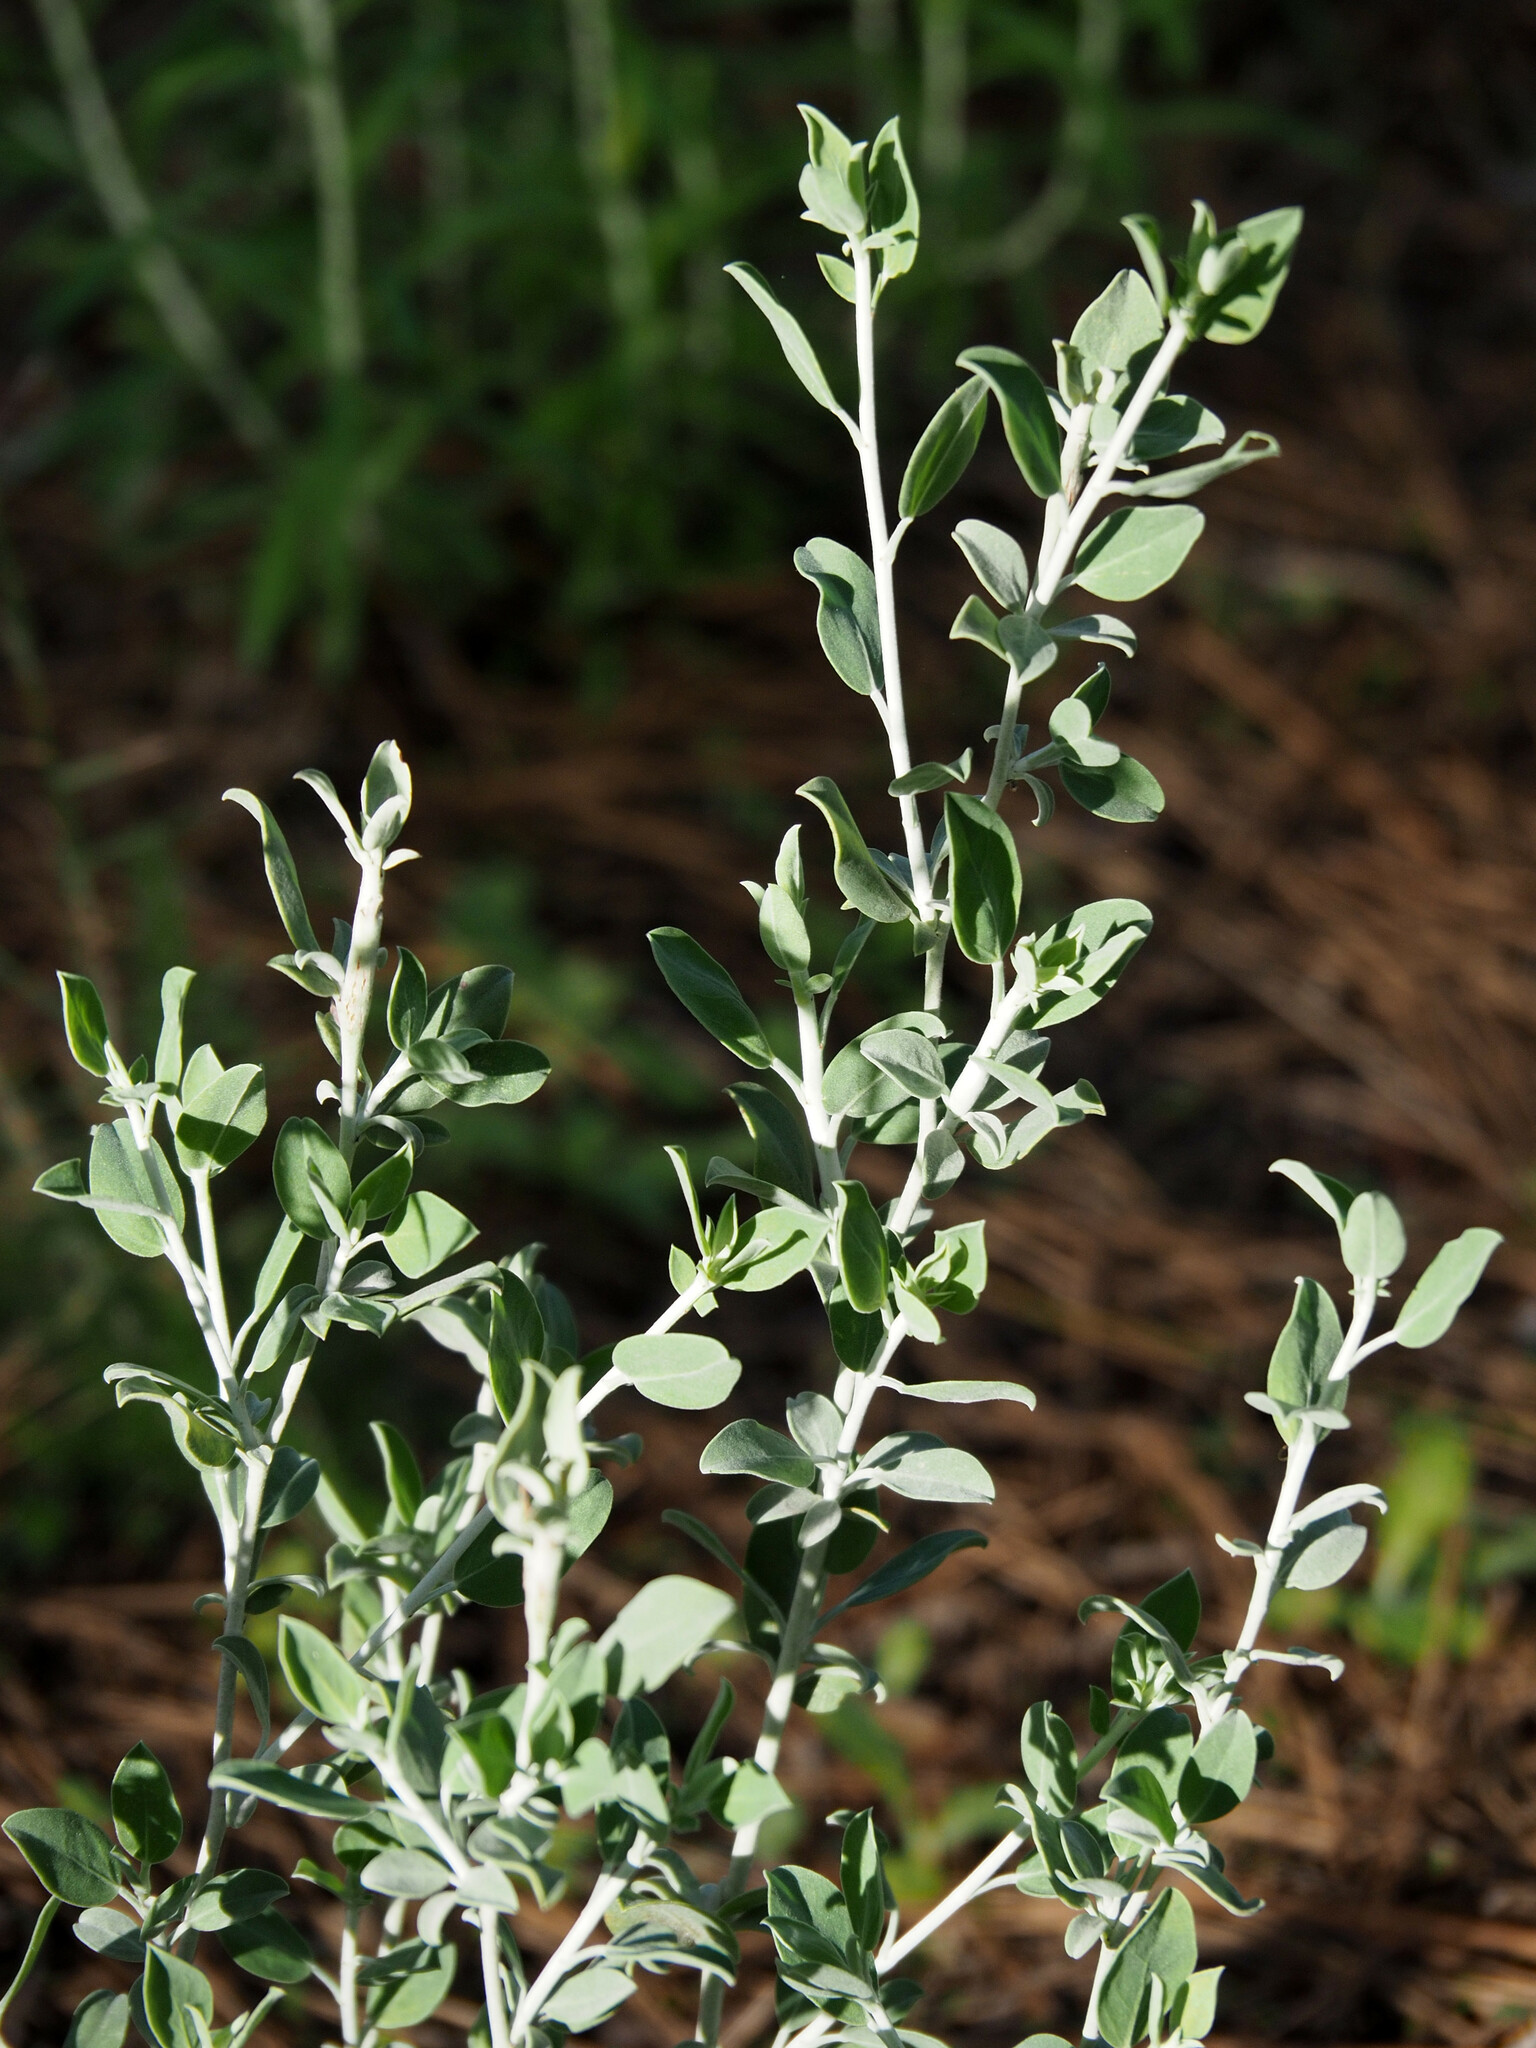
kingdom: Plantae
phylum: Tracheophyta
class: Magnoliopsida
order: Fabales
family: Fabaceae
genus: Anthyllis
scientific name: Anthyllis cytisoides
